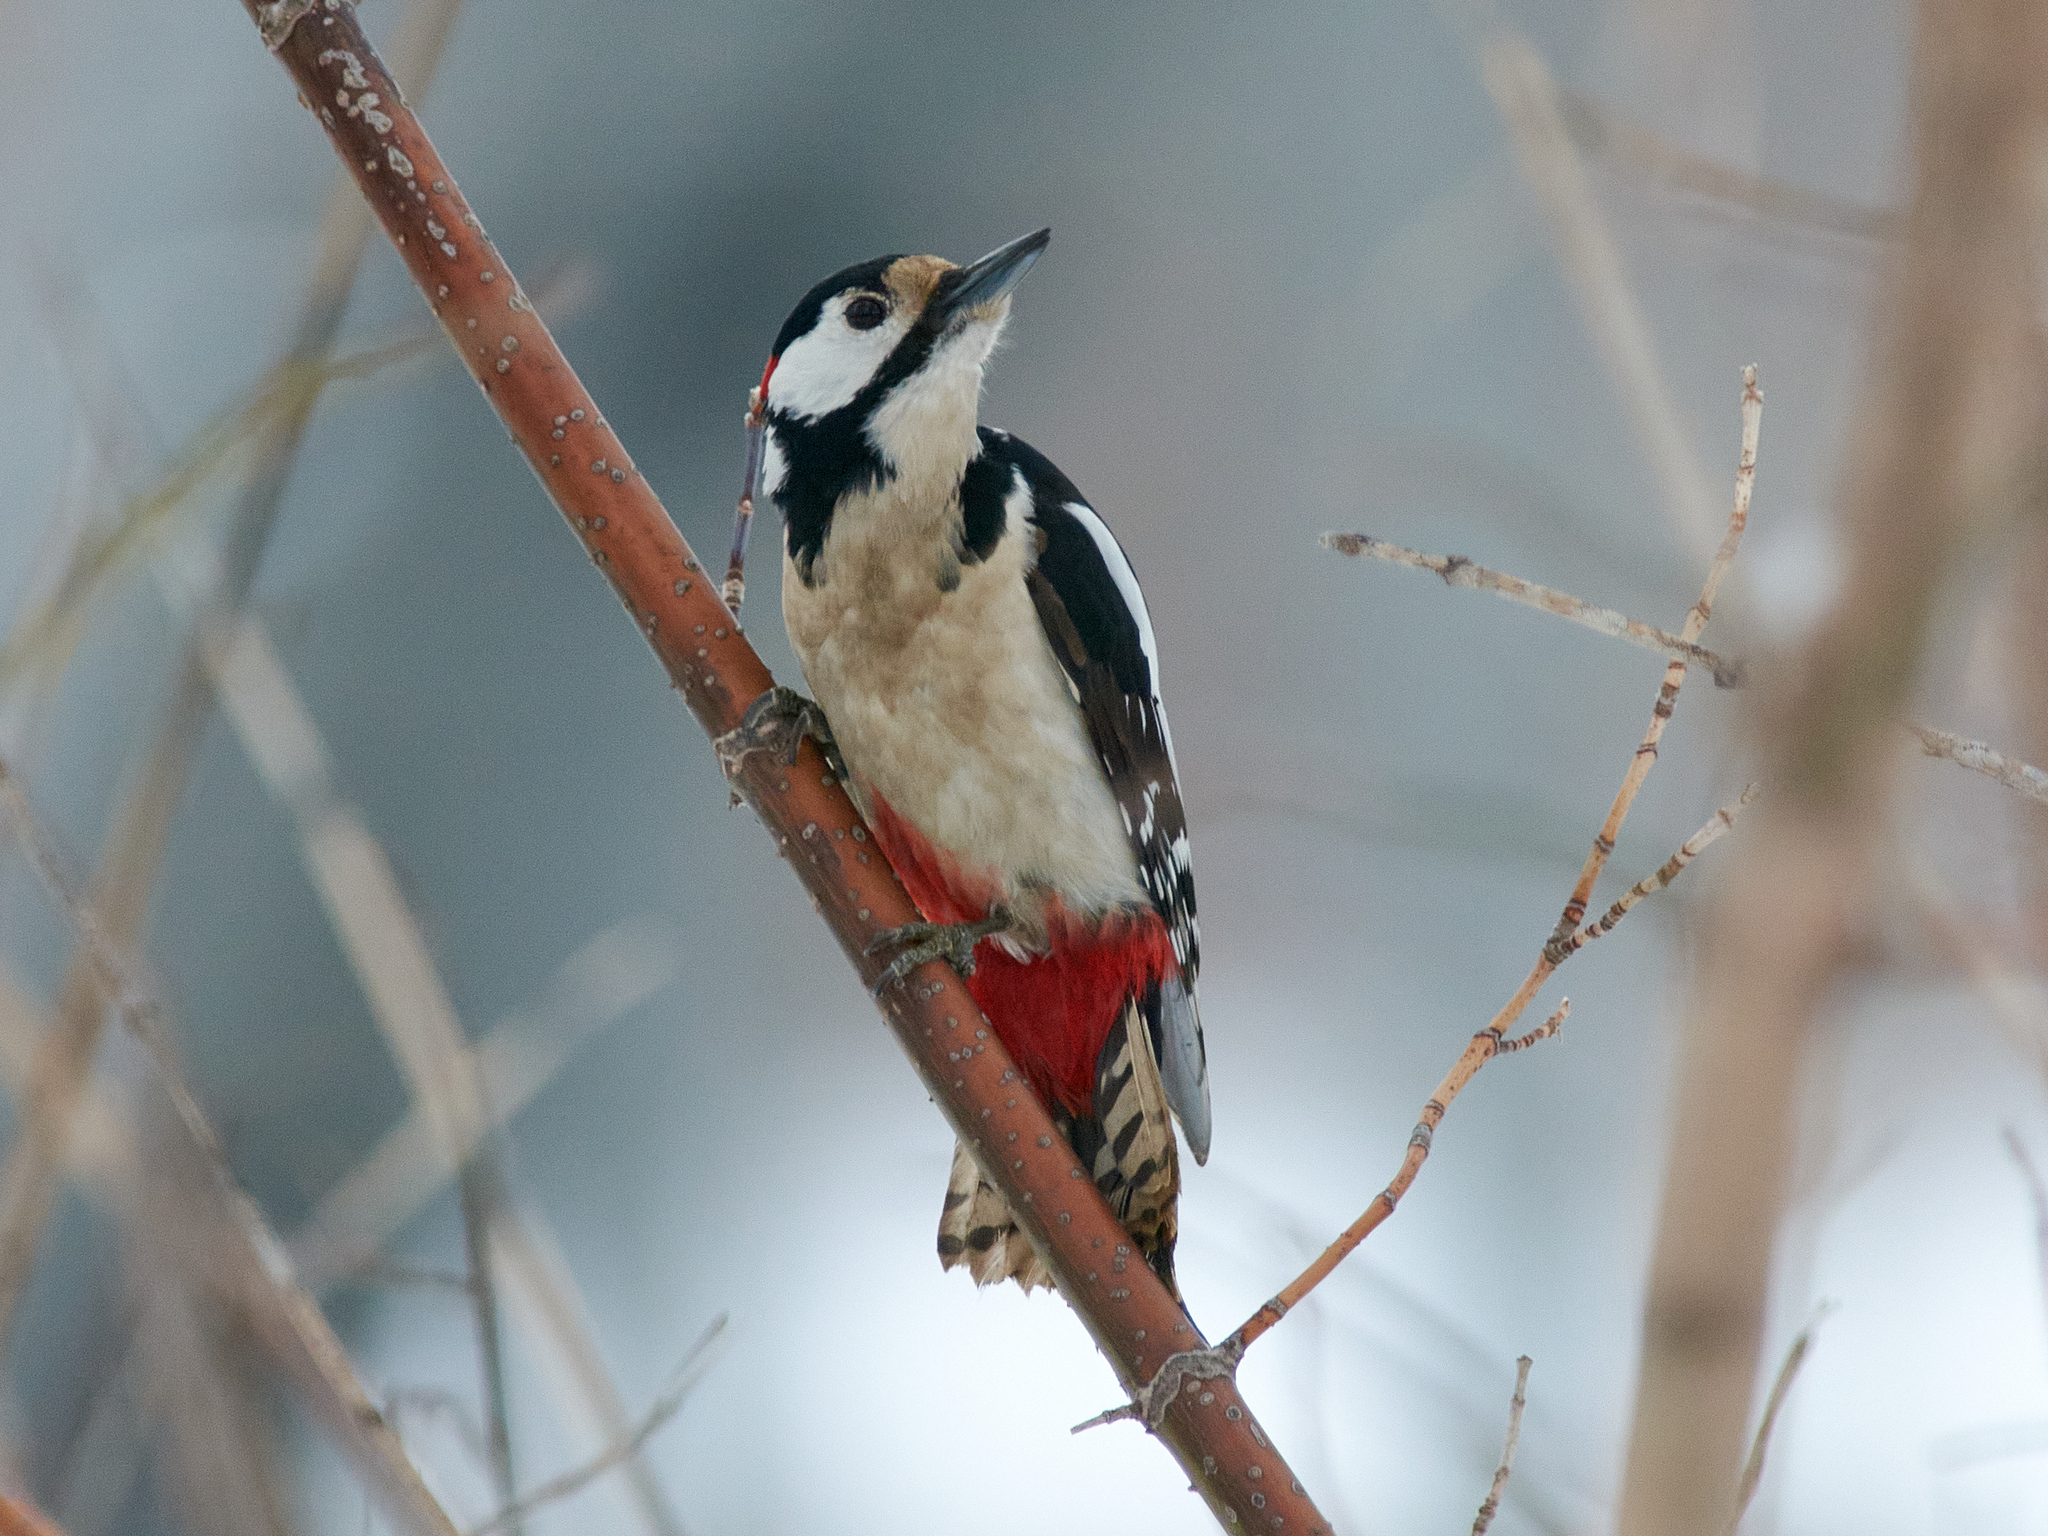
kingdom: Animalia
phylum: Chordata
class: Aves
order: Piciformes
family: Picidae
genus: Dendrocopos
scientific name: Dendrocopos major
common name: Great spotted woodpecker
